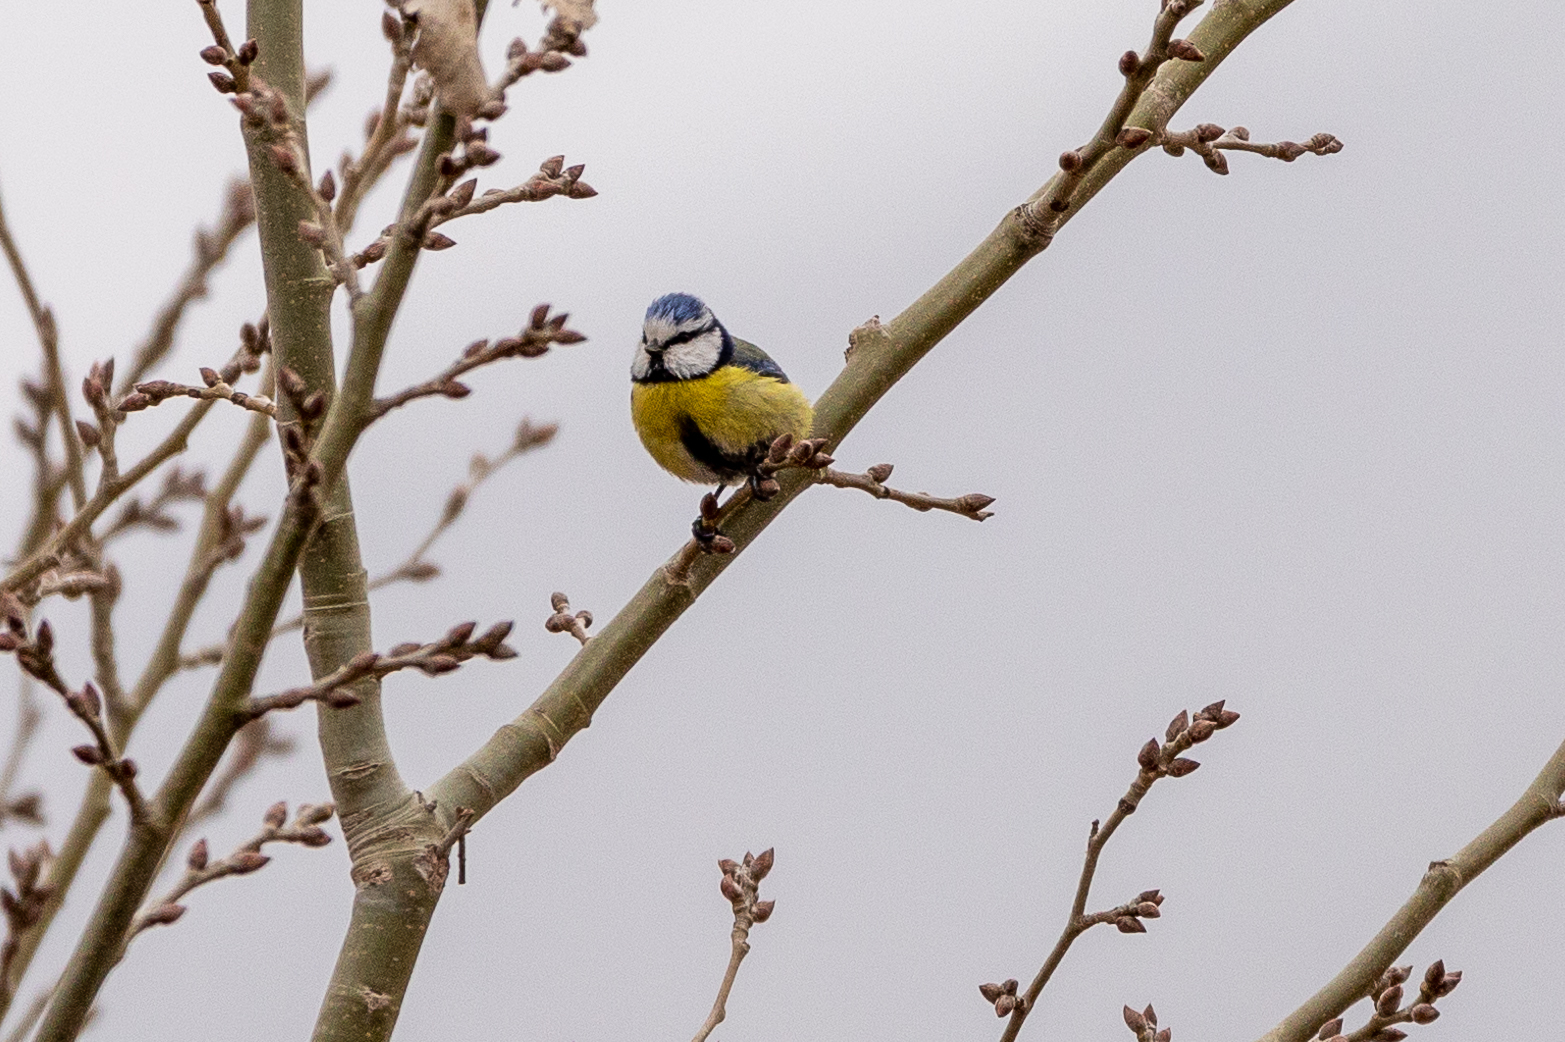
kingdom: Animalia
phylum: Chordata
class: Aves
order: Passeriformes
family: Paridae
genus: Cyanistes
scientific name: Cyanistes caeruleus
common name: Eurasian blue tit
